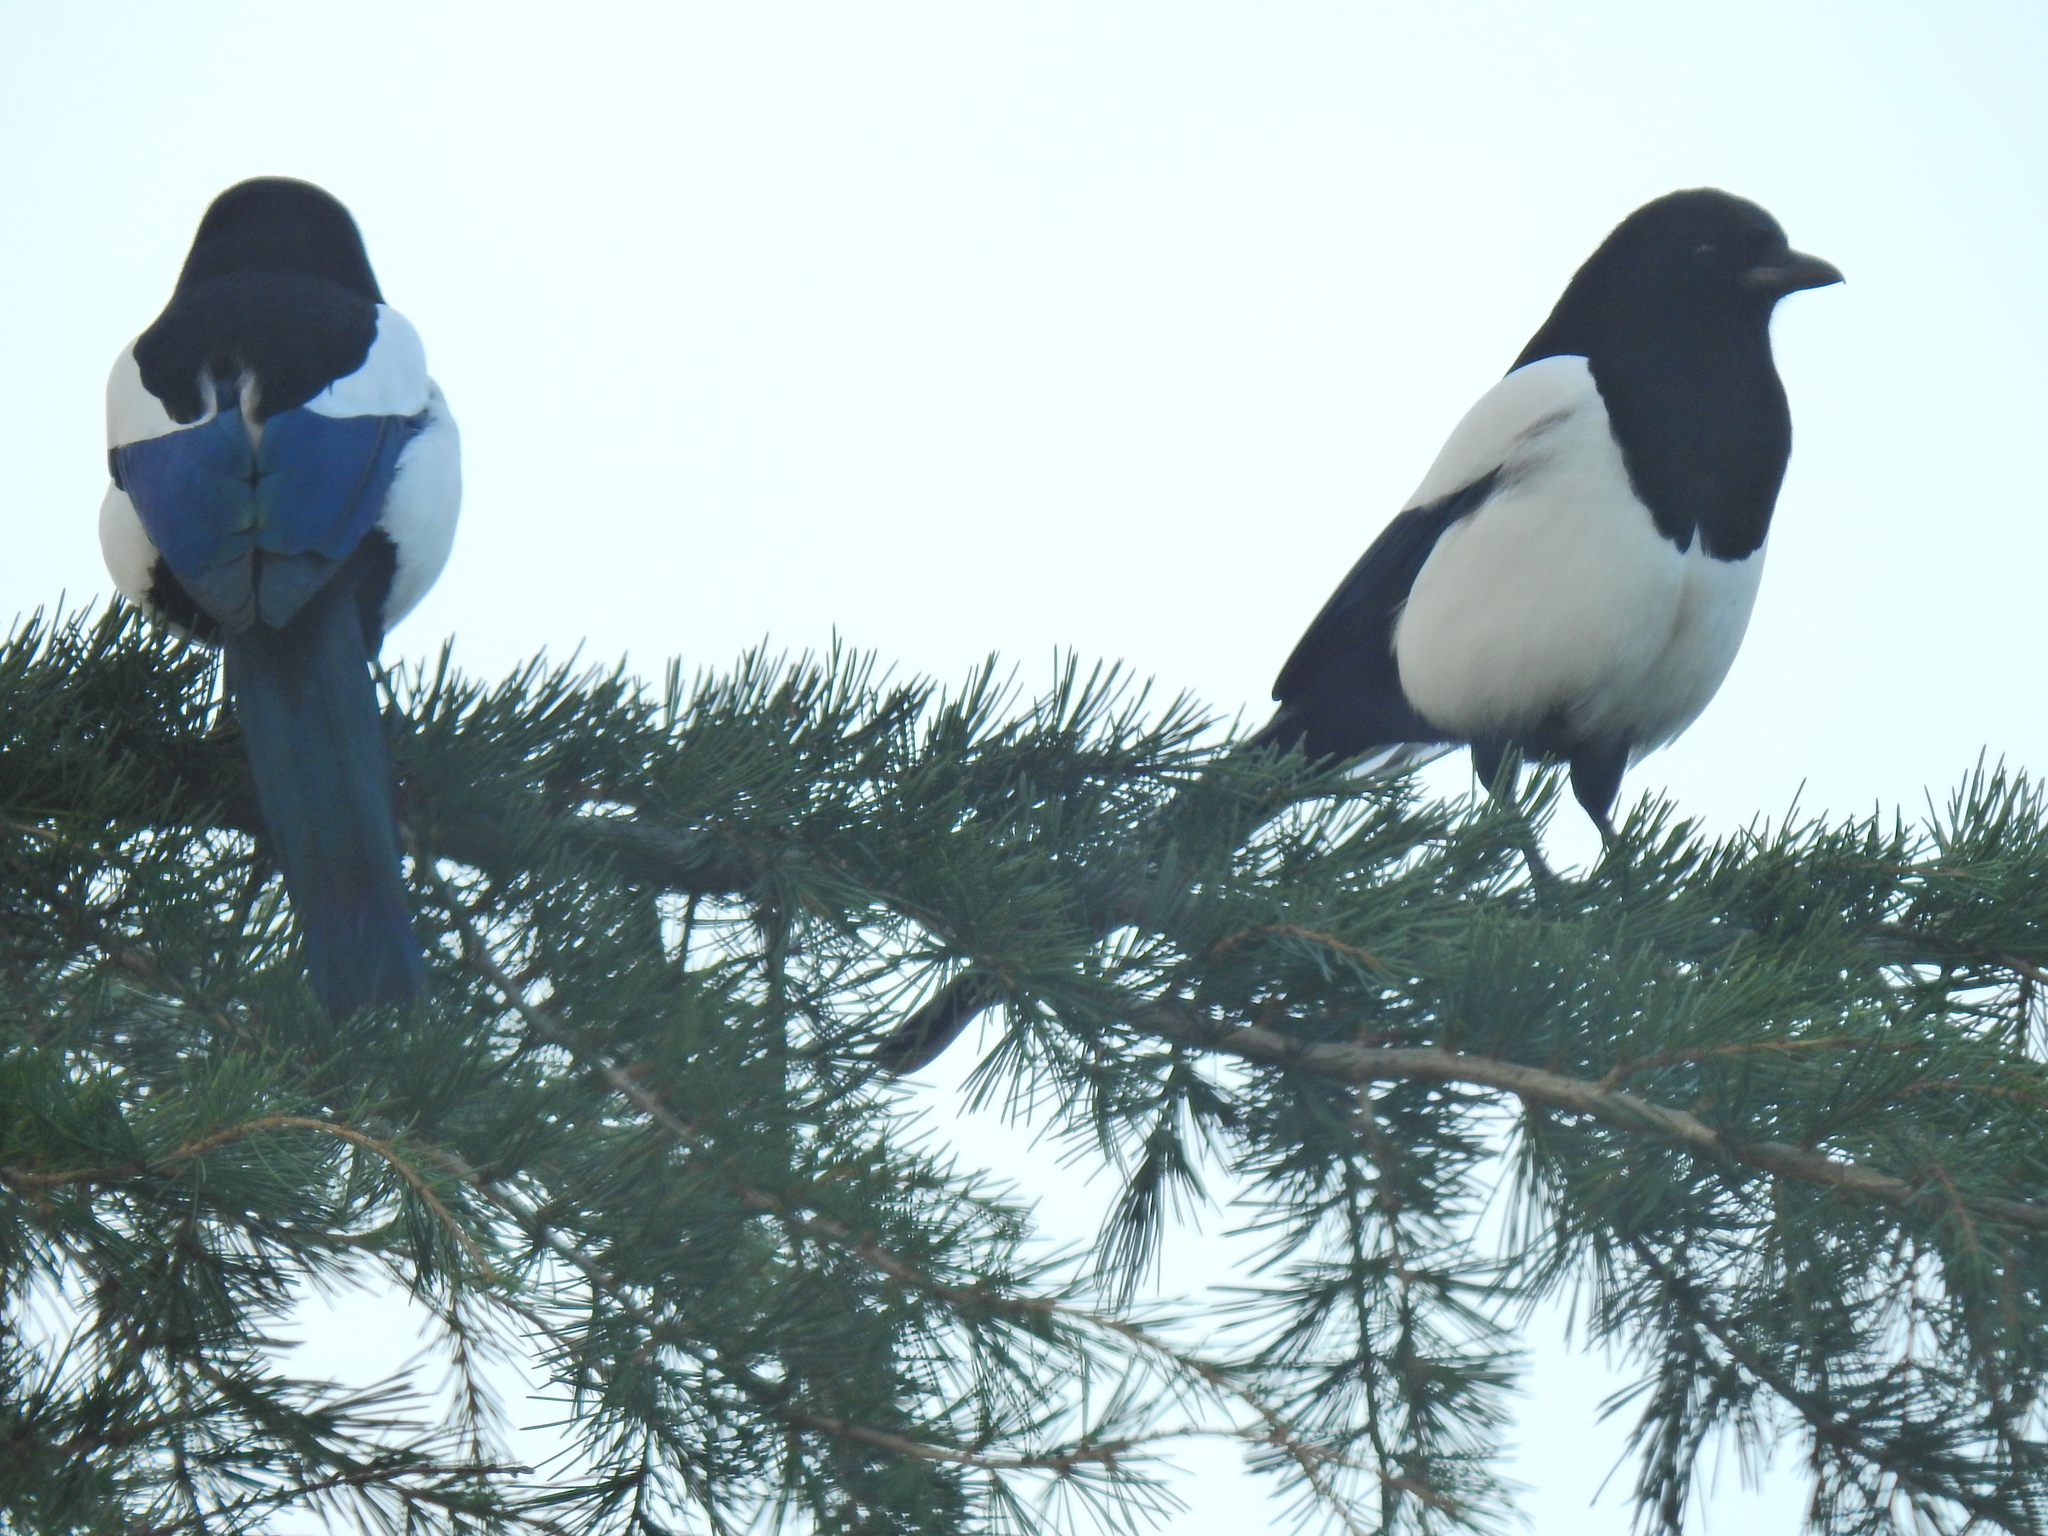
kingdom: Animalia
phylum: Chordata
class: Aves
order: Passeriformes
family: Corvidae
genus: Pica
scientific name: Pica pica
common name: Eurasian magpie
